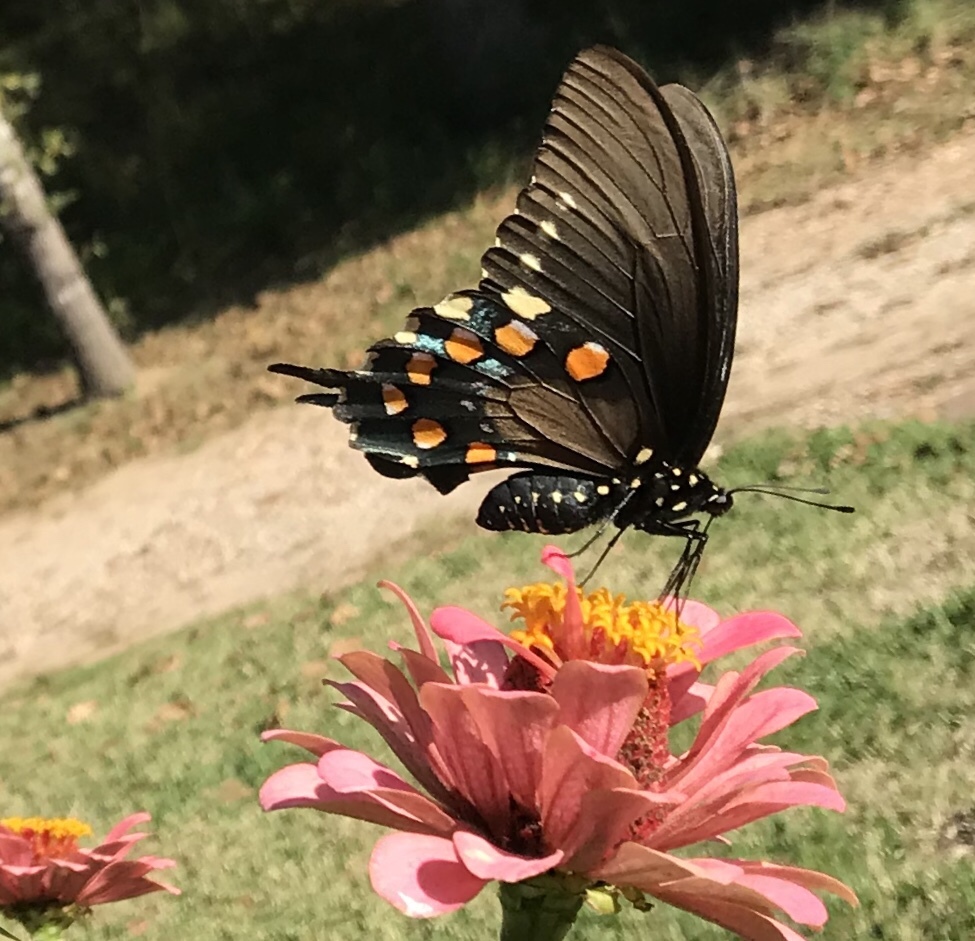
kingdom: Animalia
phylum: Arthropoda
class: Insecta
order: Lepidoptera
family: Papilionidae
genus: Battus
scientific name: Battus philenor
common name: Pipevine swallowtail
